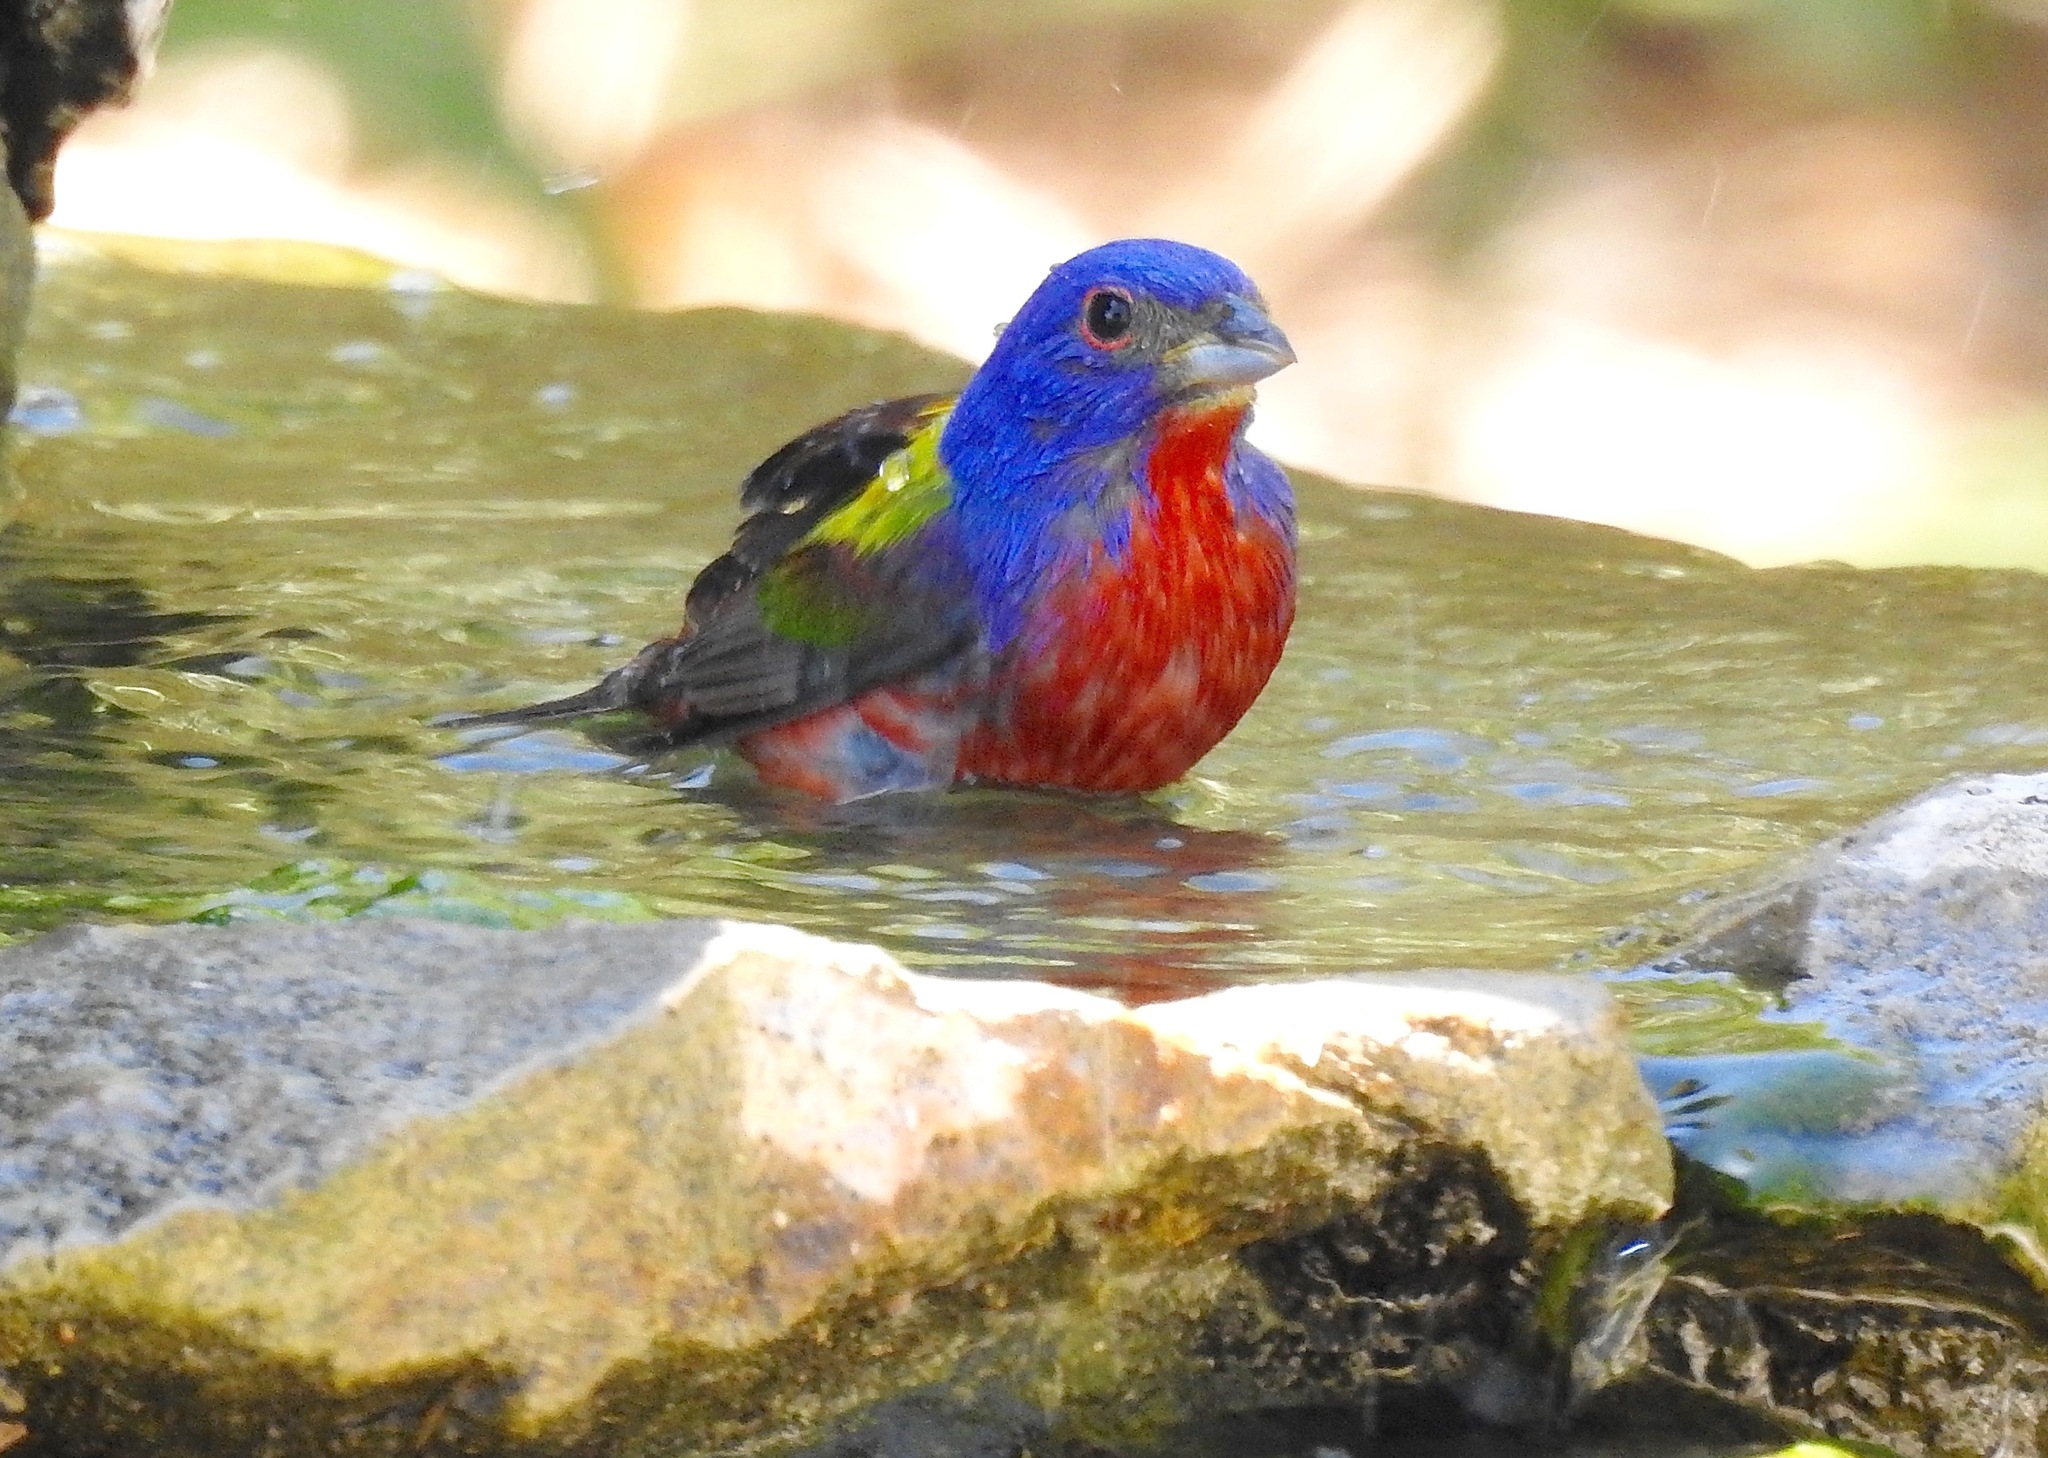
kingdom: Animalia
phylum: Chordata
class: Aves
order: Passeriformes
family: Cardinalidae
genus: Passerina
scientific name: Passerina ciris
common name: Painted bunting
